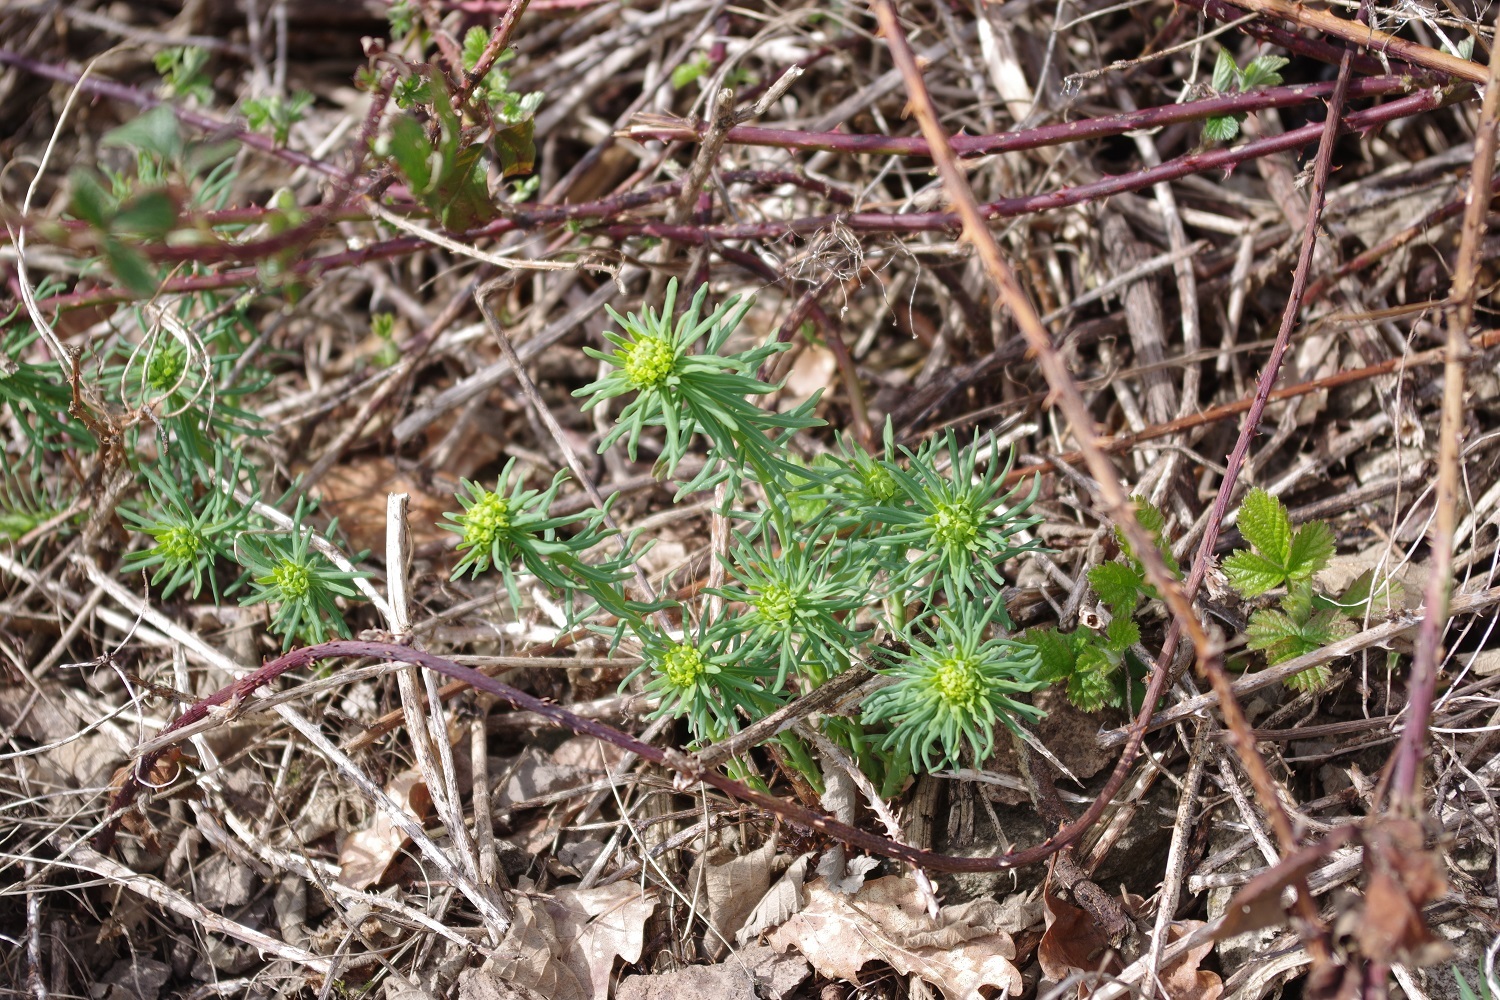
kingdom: Plantae
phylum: Tracheophyta
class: Magnoliopsida
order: Malpighiales
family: Euphorbiaceae
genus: Euphorbia
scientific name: Euphorbia cyparissias
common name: Cypress spurge
